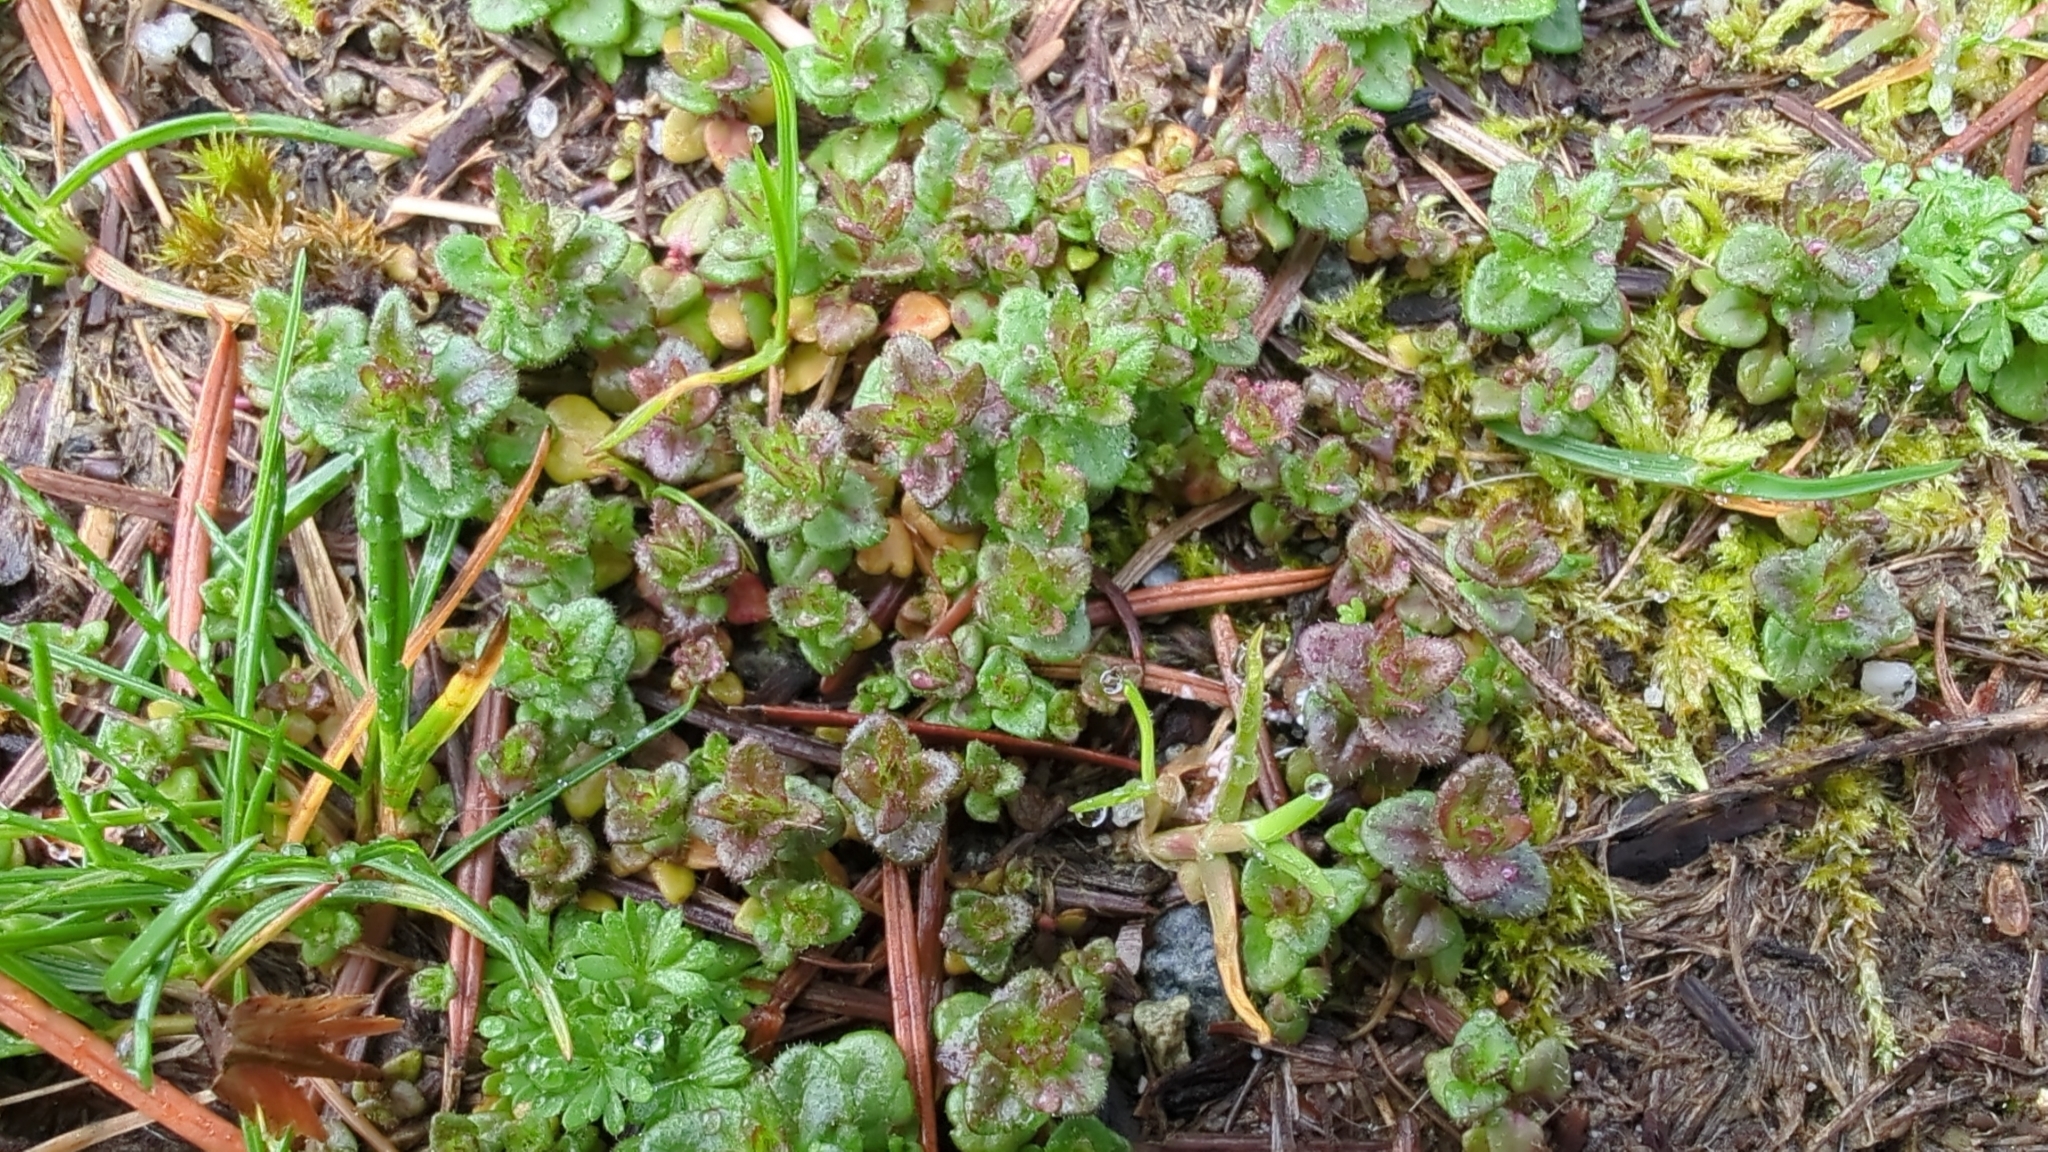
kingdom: Plantae
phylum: Tracheophyta
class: Magnoliopsida
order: Lamiales
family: Plantaginaceae
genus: Veronica
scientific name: Veronica arvensis
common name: Corn speedwell
